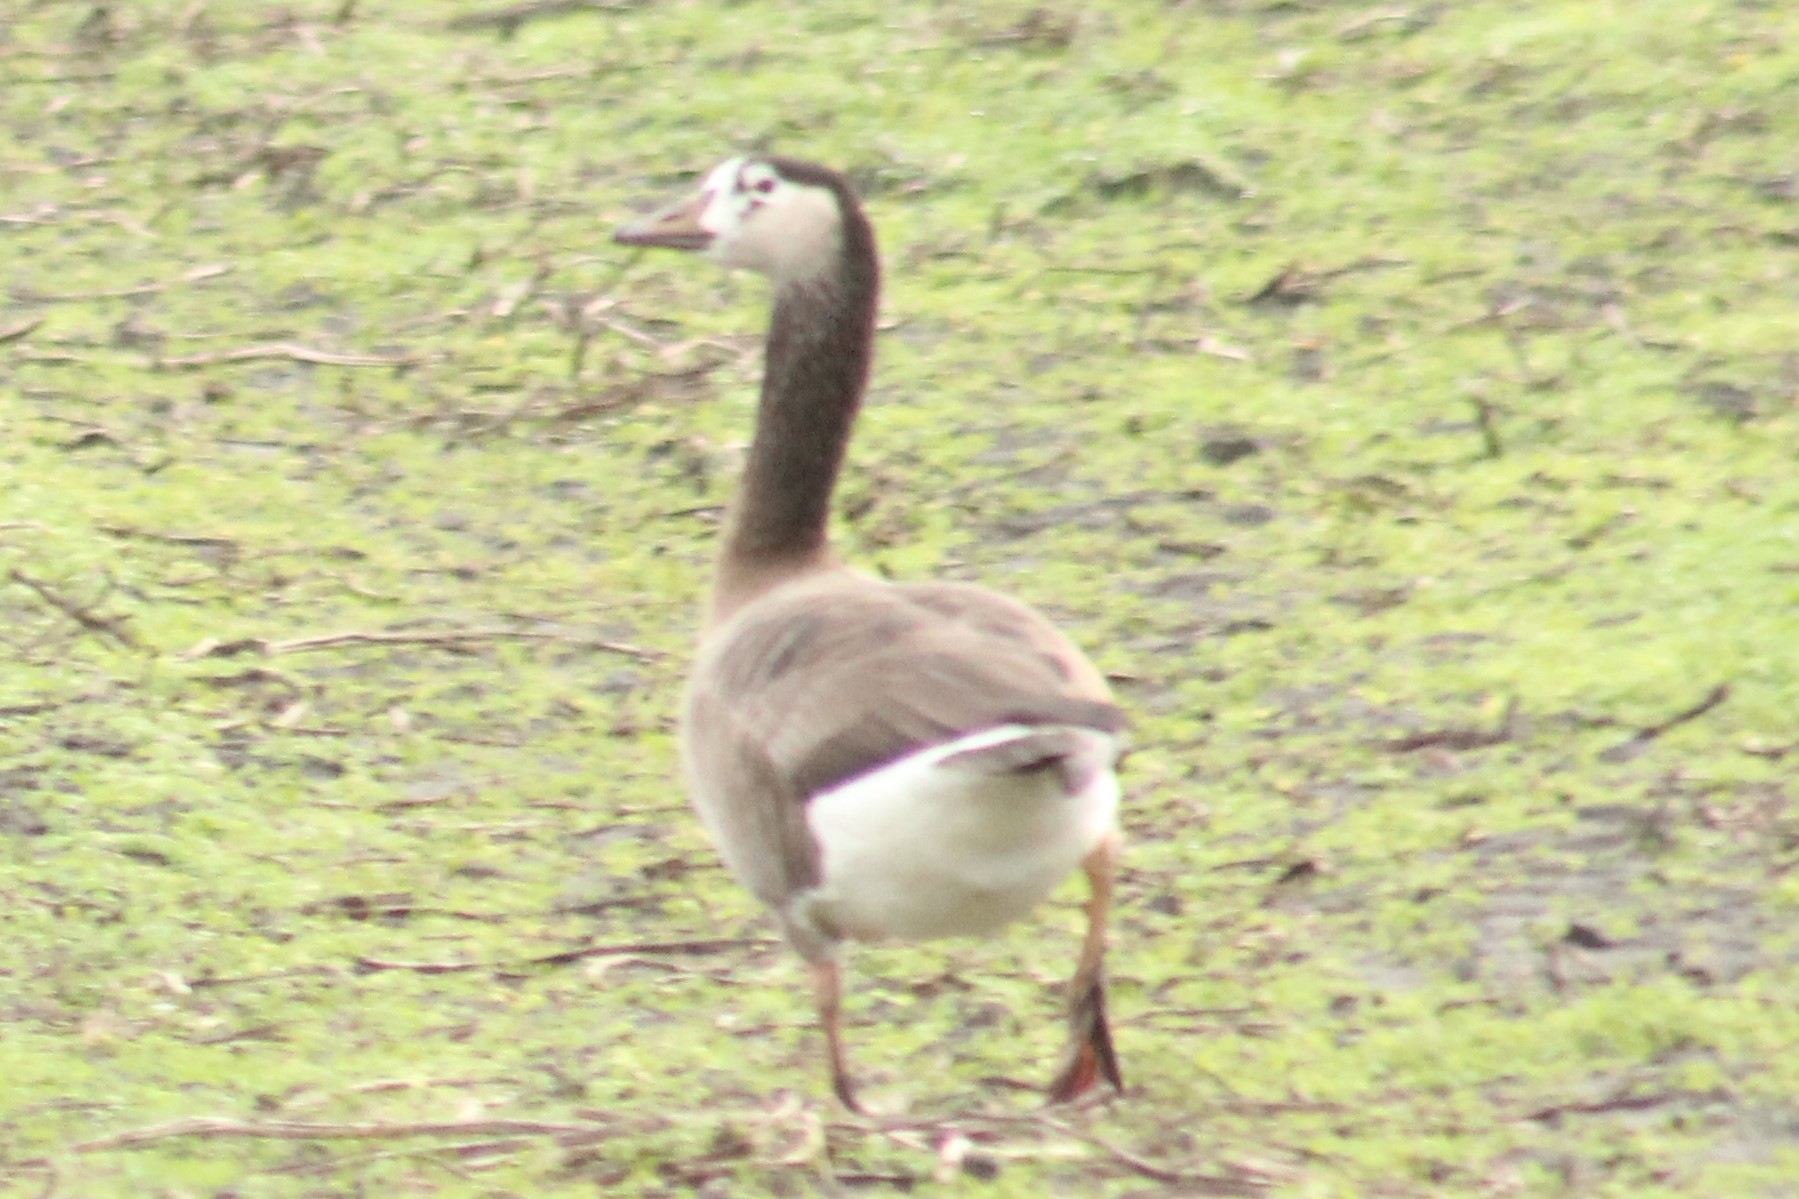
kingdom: Animalia
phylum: Chordata
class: Aves
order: Anseriformes
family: Anatidae
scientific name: Anatidae
